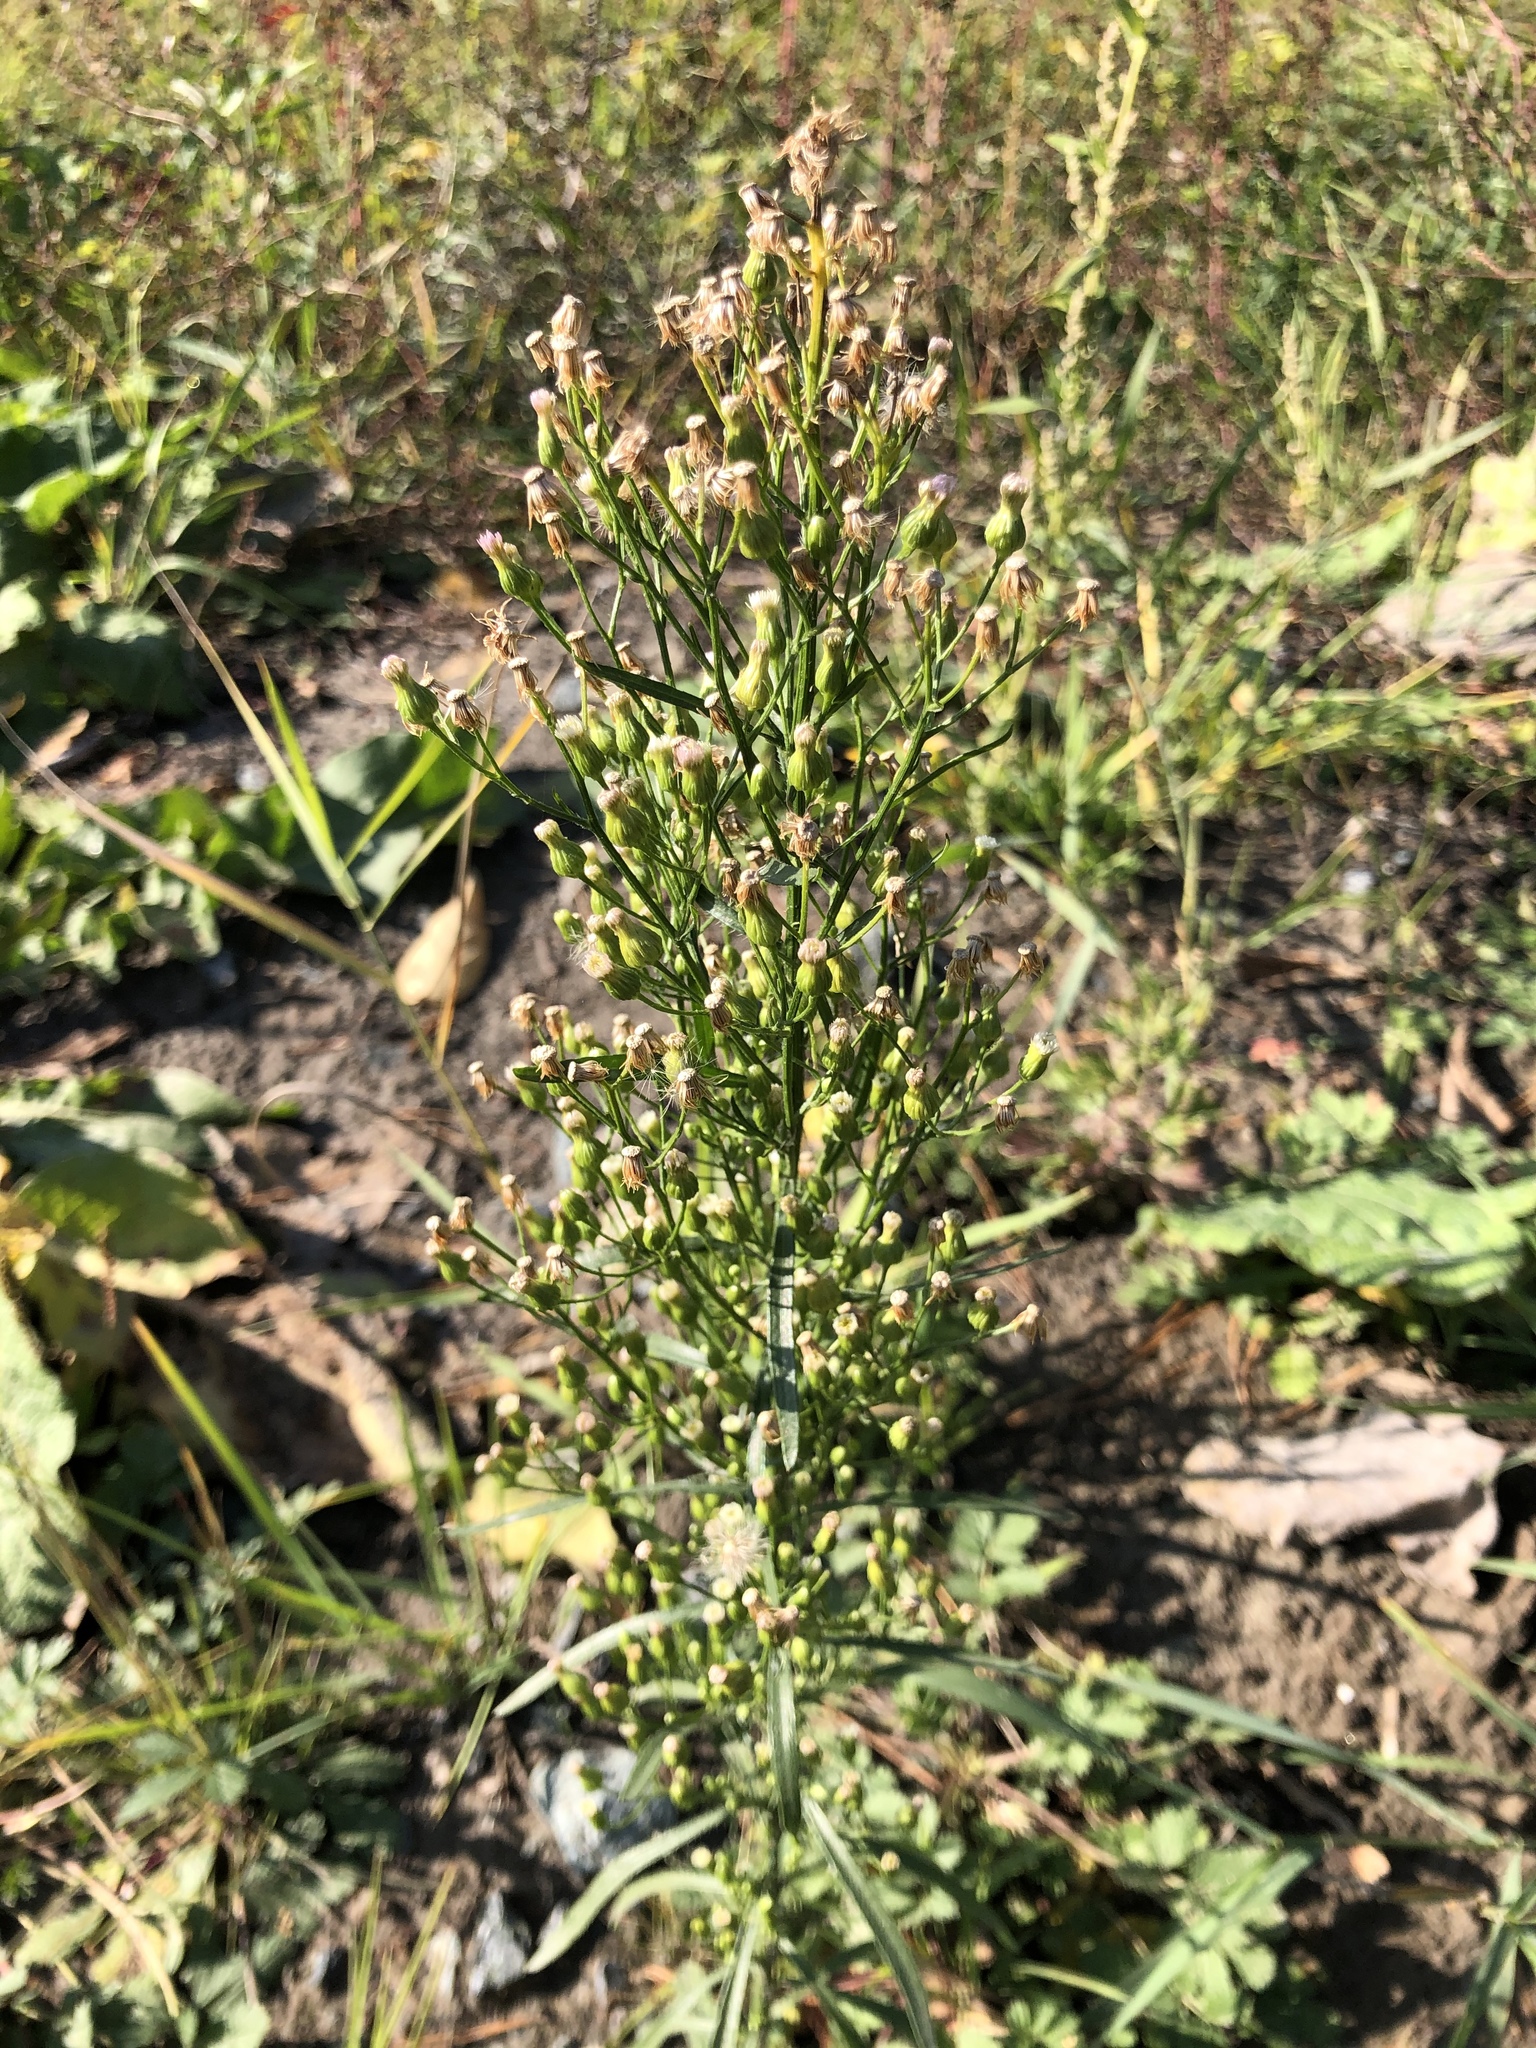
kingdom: Plantae
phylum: Tracheophyta
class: Magnoliopsida
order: Asterales
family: Asteraceae
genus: Erigeron
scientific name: Erigeron canadensis
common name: Canadian fleabane
